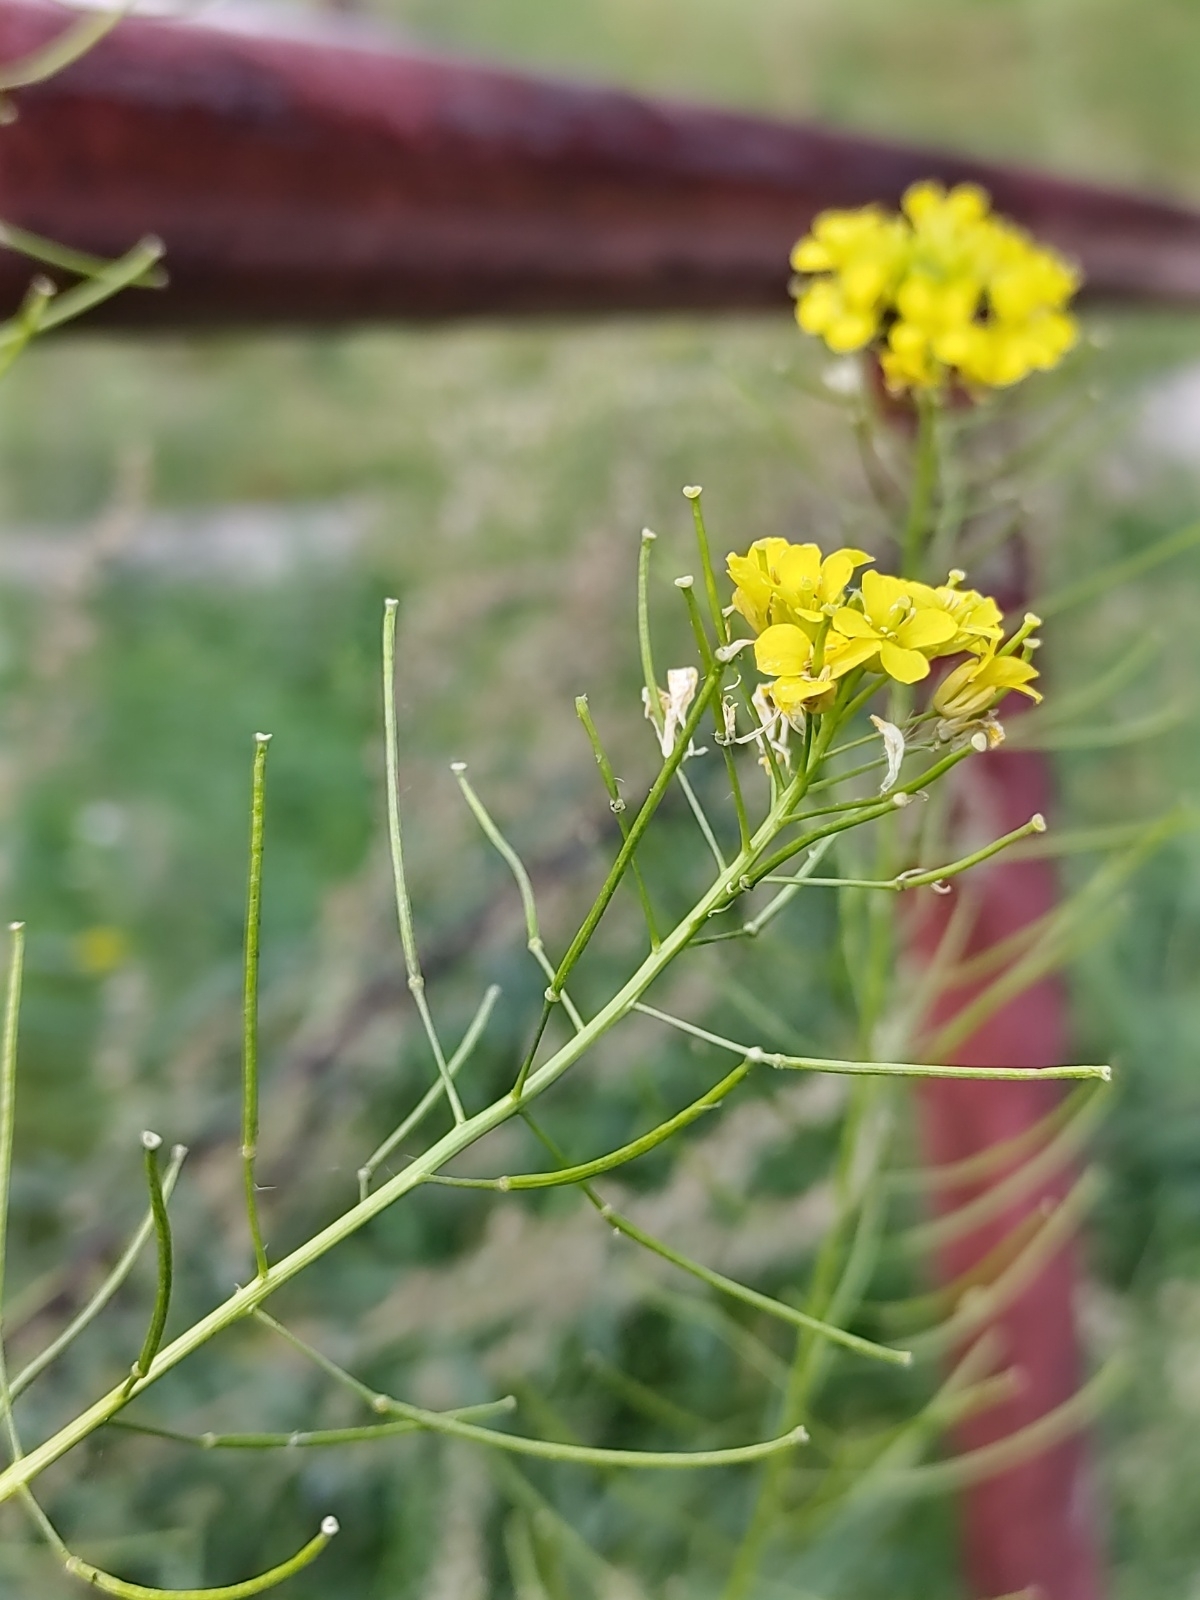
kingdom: Plantae
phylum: Tracheophyta
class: Magnoliopsida
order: Brassicales
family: Brassicaceae
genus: Sisymbrium
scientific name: Sisymbrium loeselii
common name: False london-rocket
